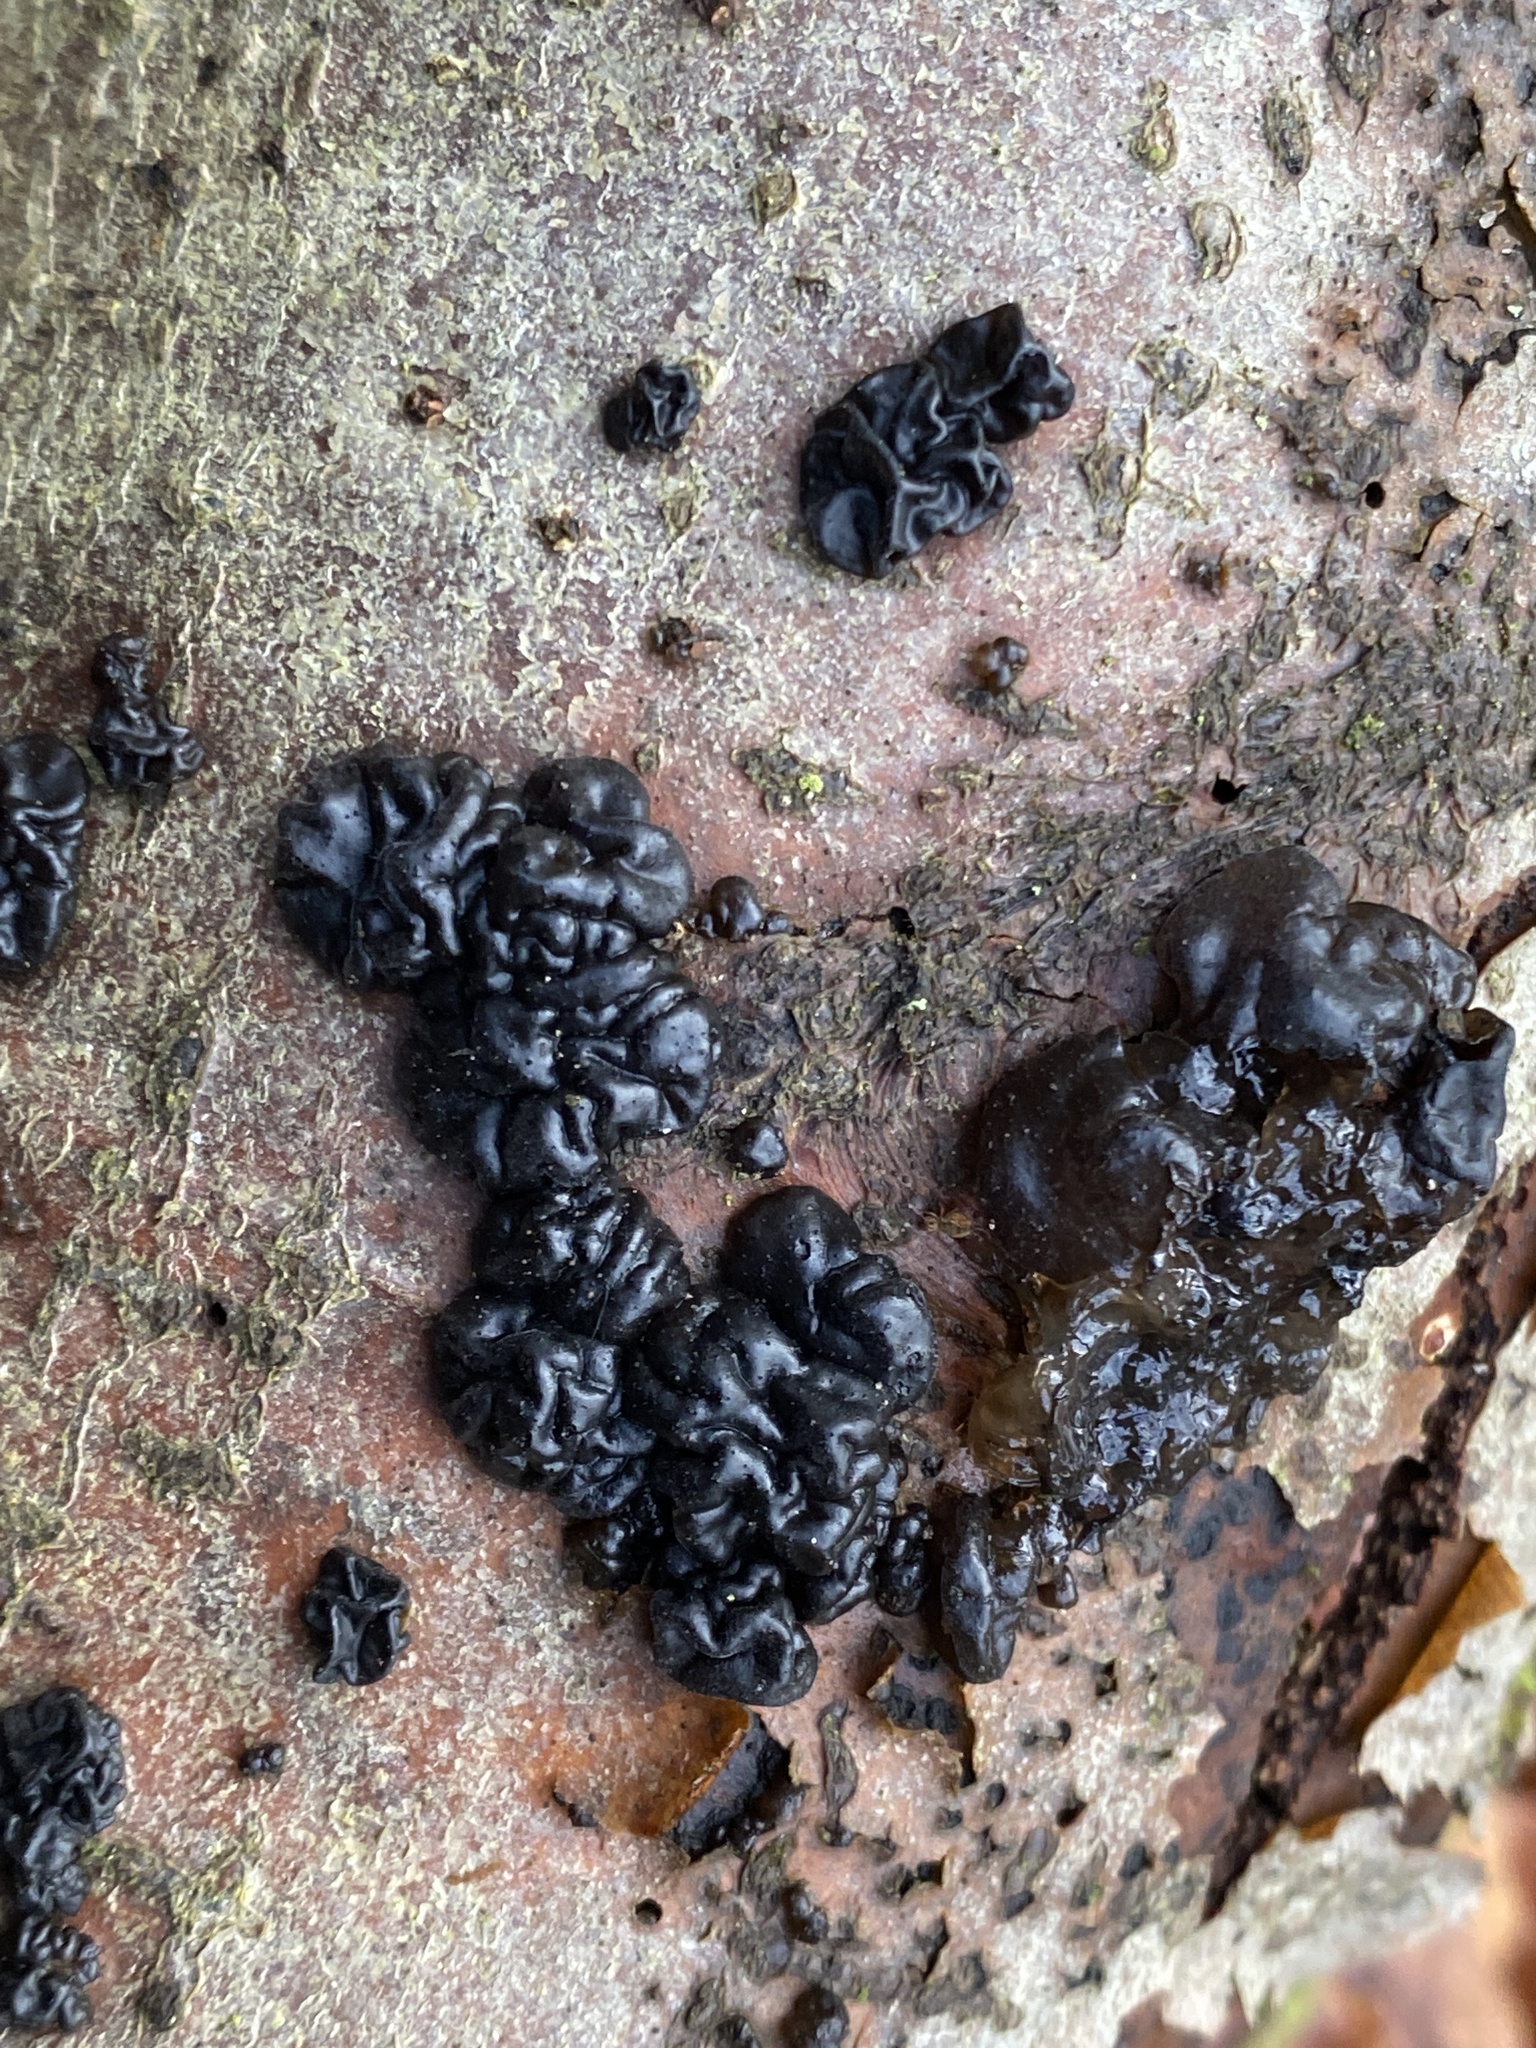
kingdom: Fungi
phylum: Basidiomycota
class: Agaricomycetes
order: Auriculariales
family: Auriculariaceae
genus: Exidia
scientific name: Exidia nigricans
